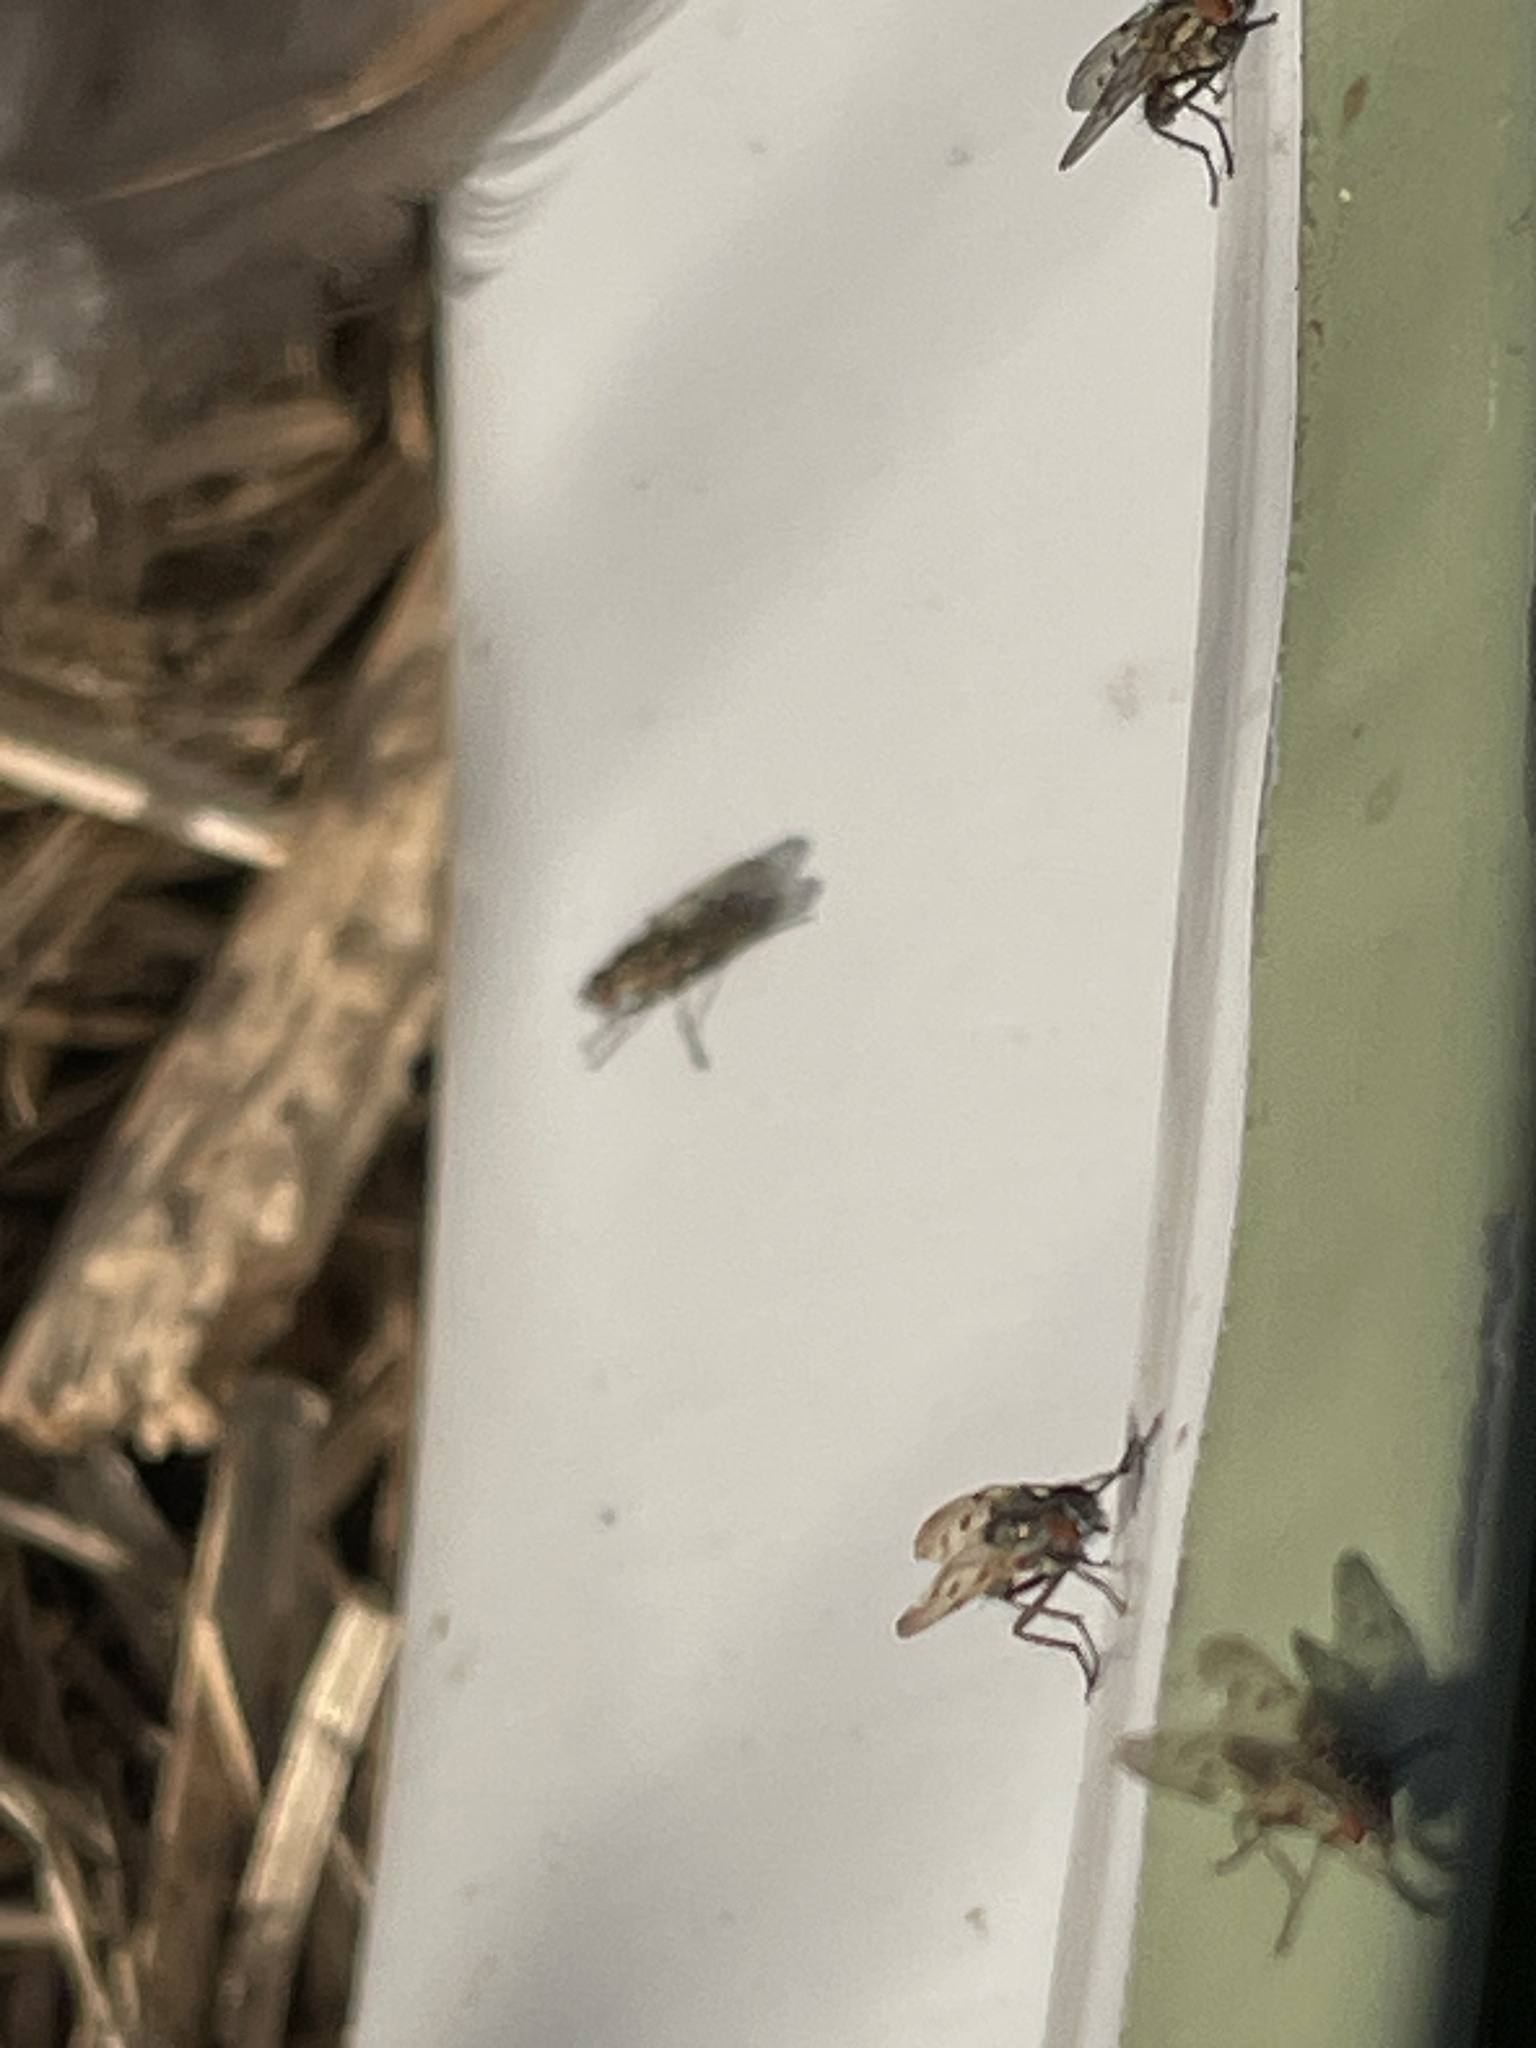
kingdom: Animalia
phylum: Arthropoda
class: Insecta
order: Diptera
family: Anthomyiidae
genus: Anthomyia
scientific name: Anthomyia punctipennis
